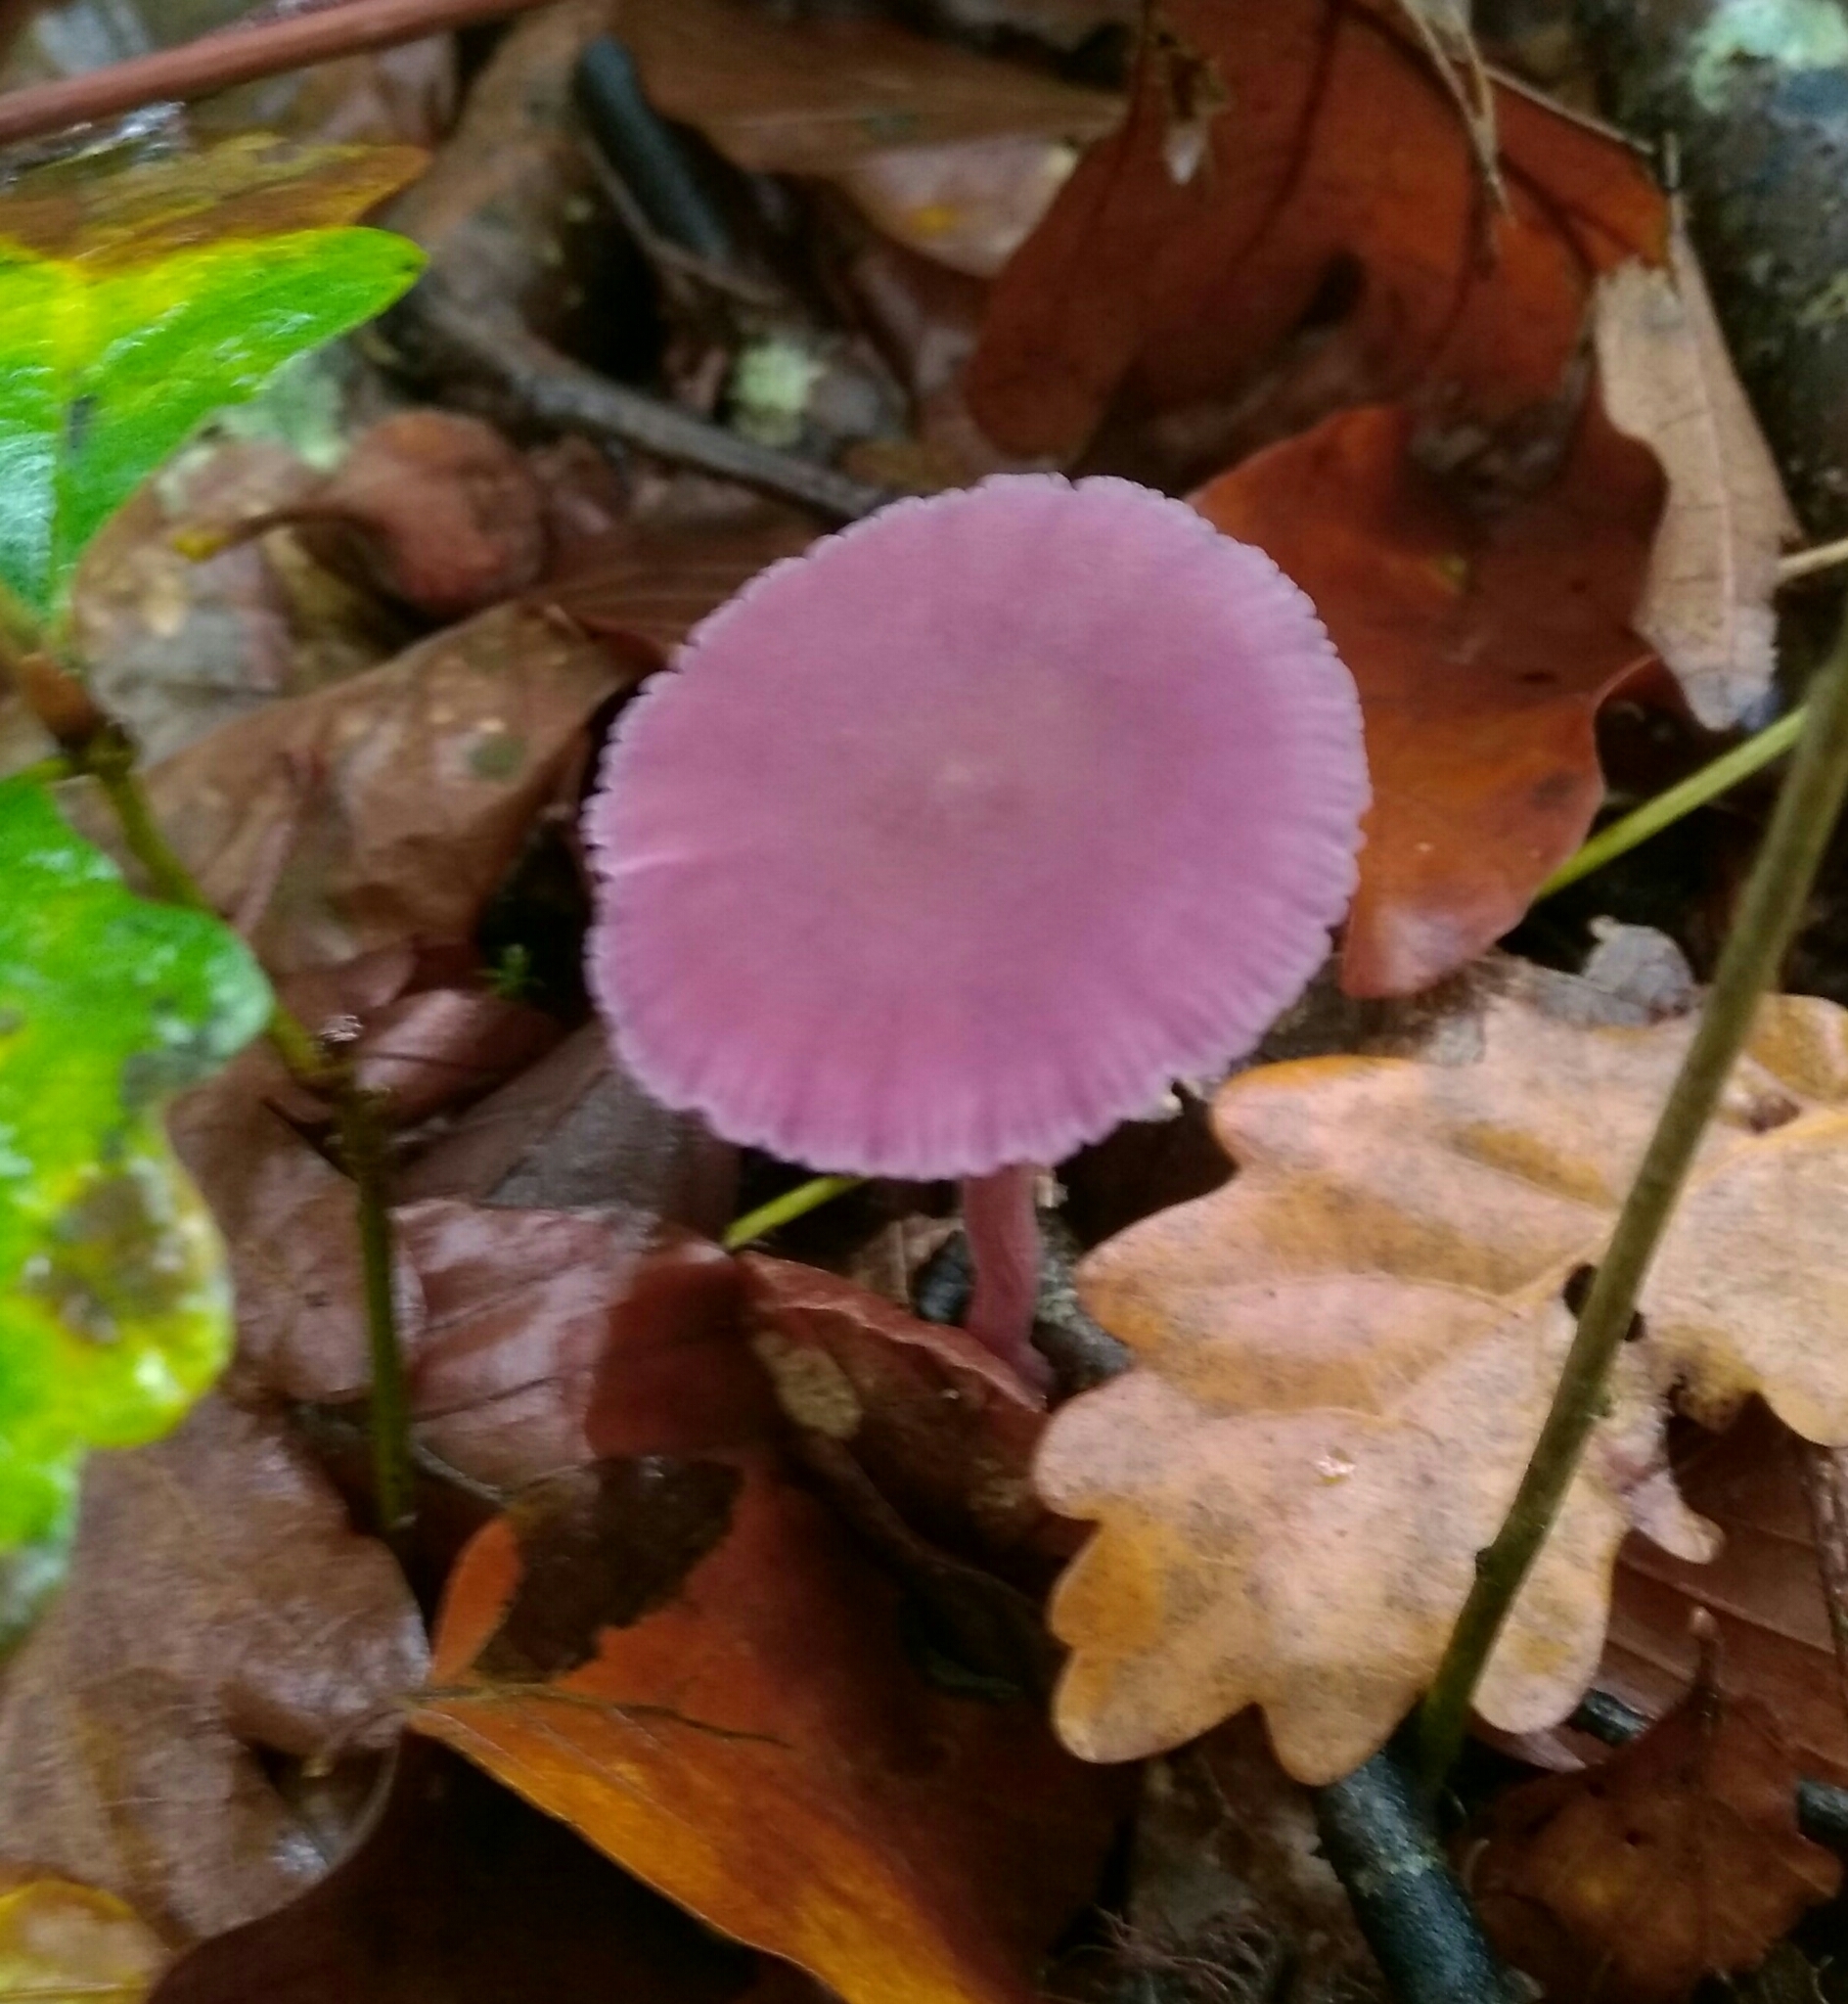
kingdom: Fungi
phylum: Basidiomycota
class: Agaricomycetes
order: Agaricales
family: Hydnangiaceae
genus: Laccaria
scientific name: Laccaria amethystina
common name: Amethyst deceiver
